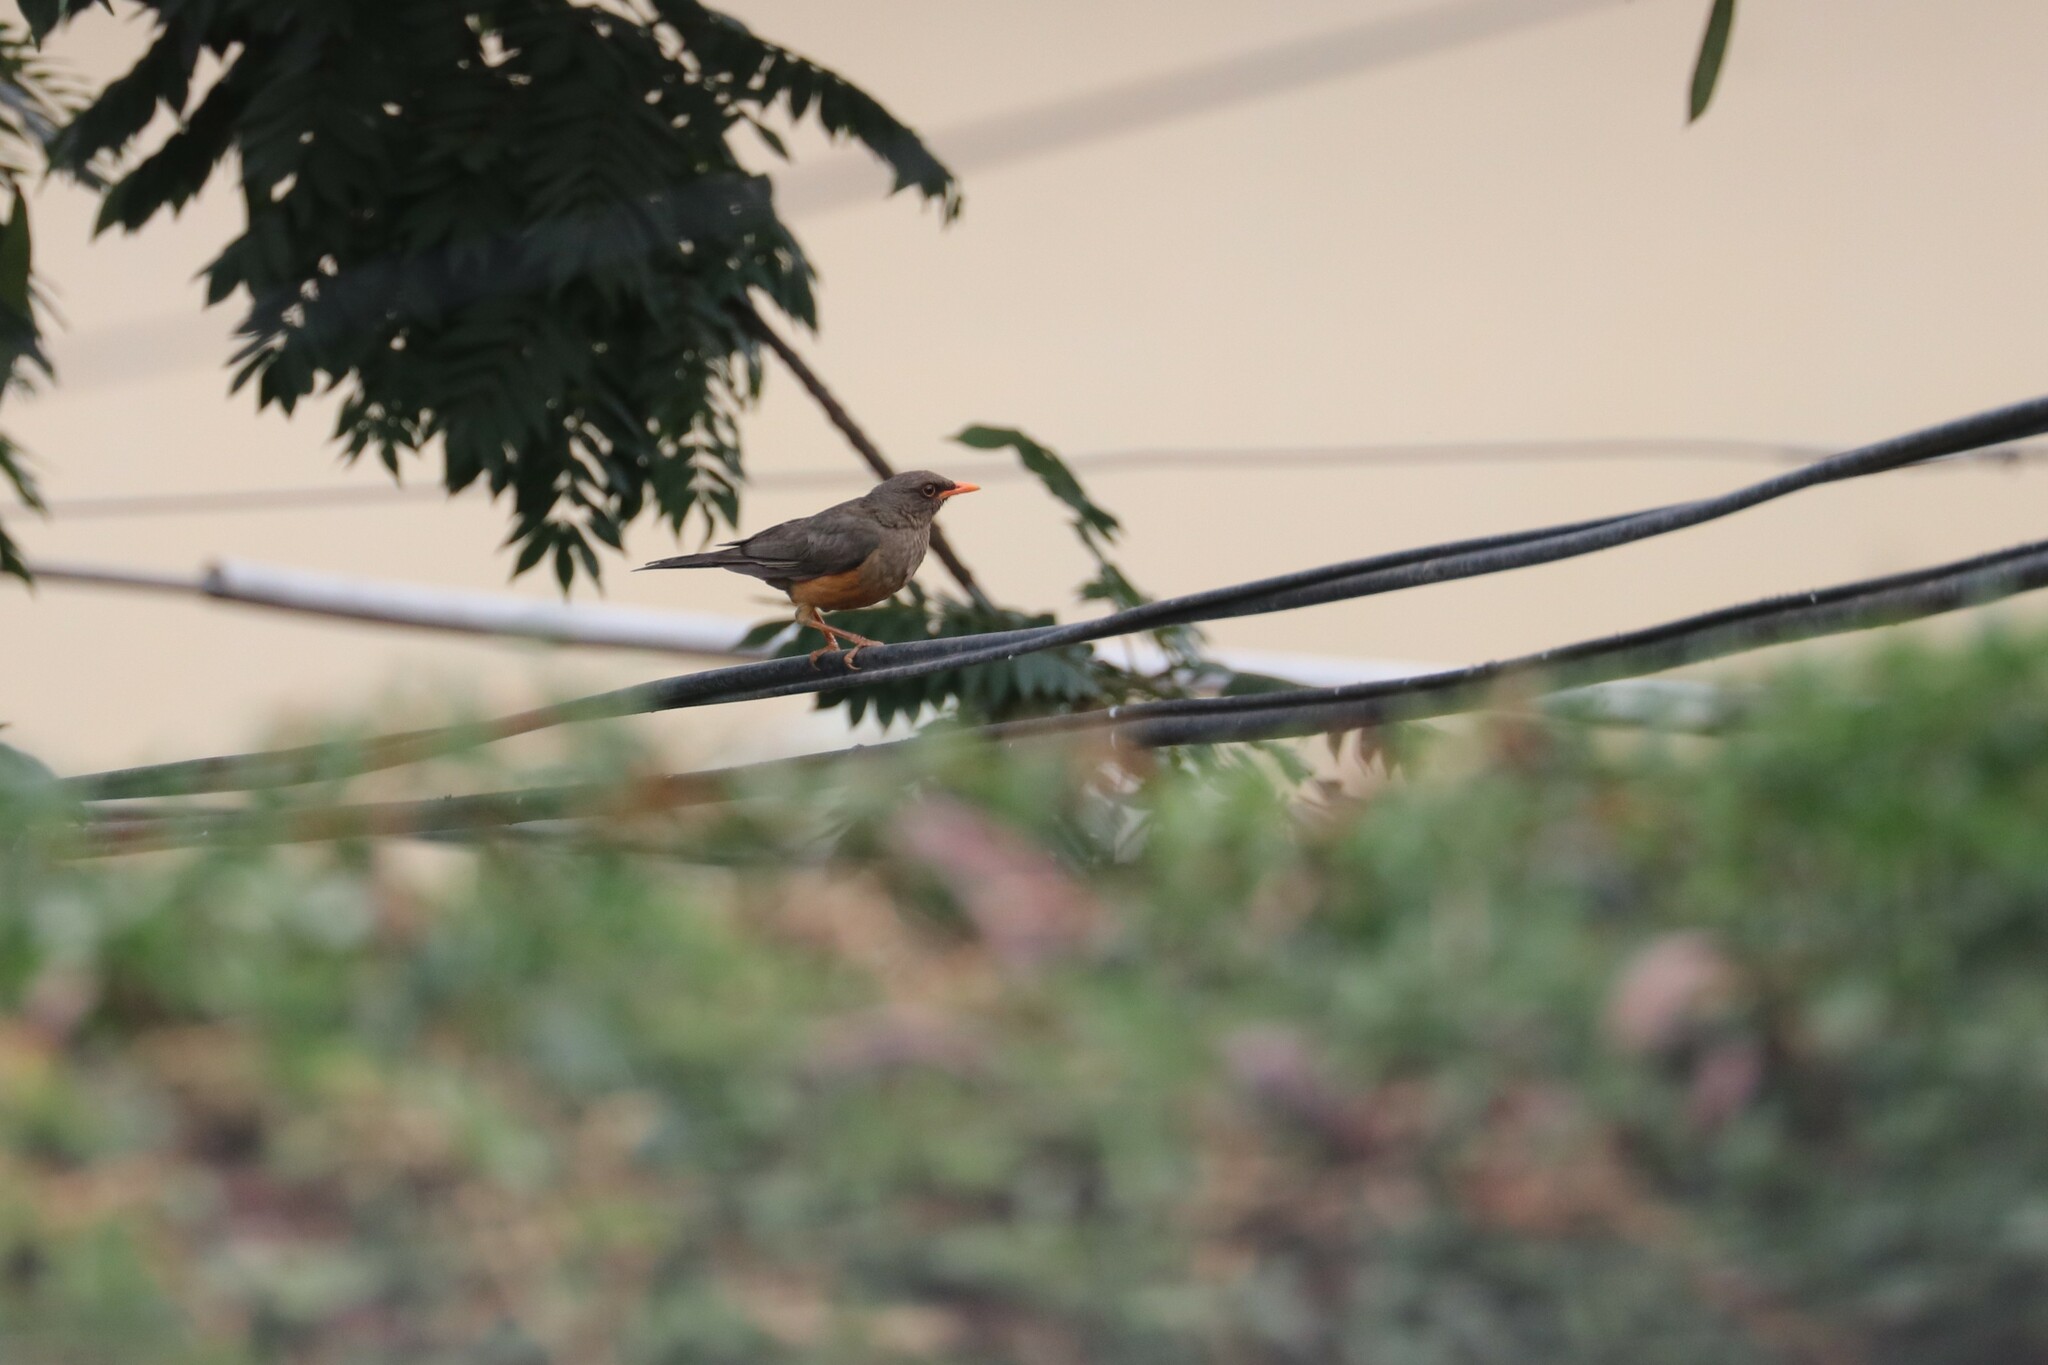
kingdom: Animalia
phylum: Chordata
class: Aves
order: Passeriformes
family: Turdidae
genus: Turdus
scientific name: Turdus abyssinicus
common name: Abyssinian thrush
